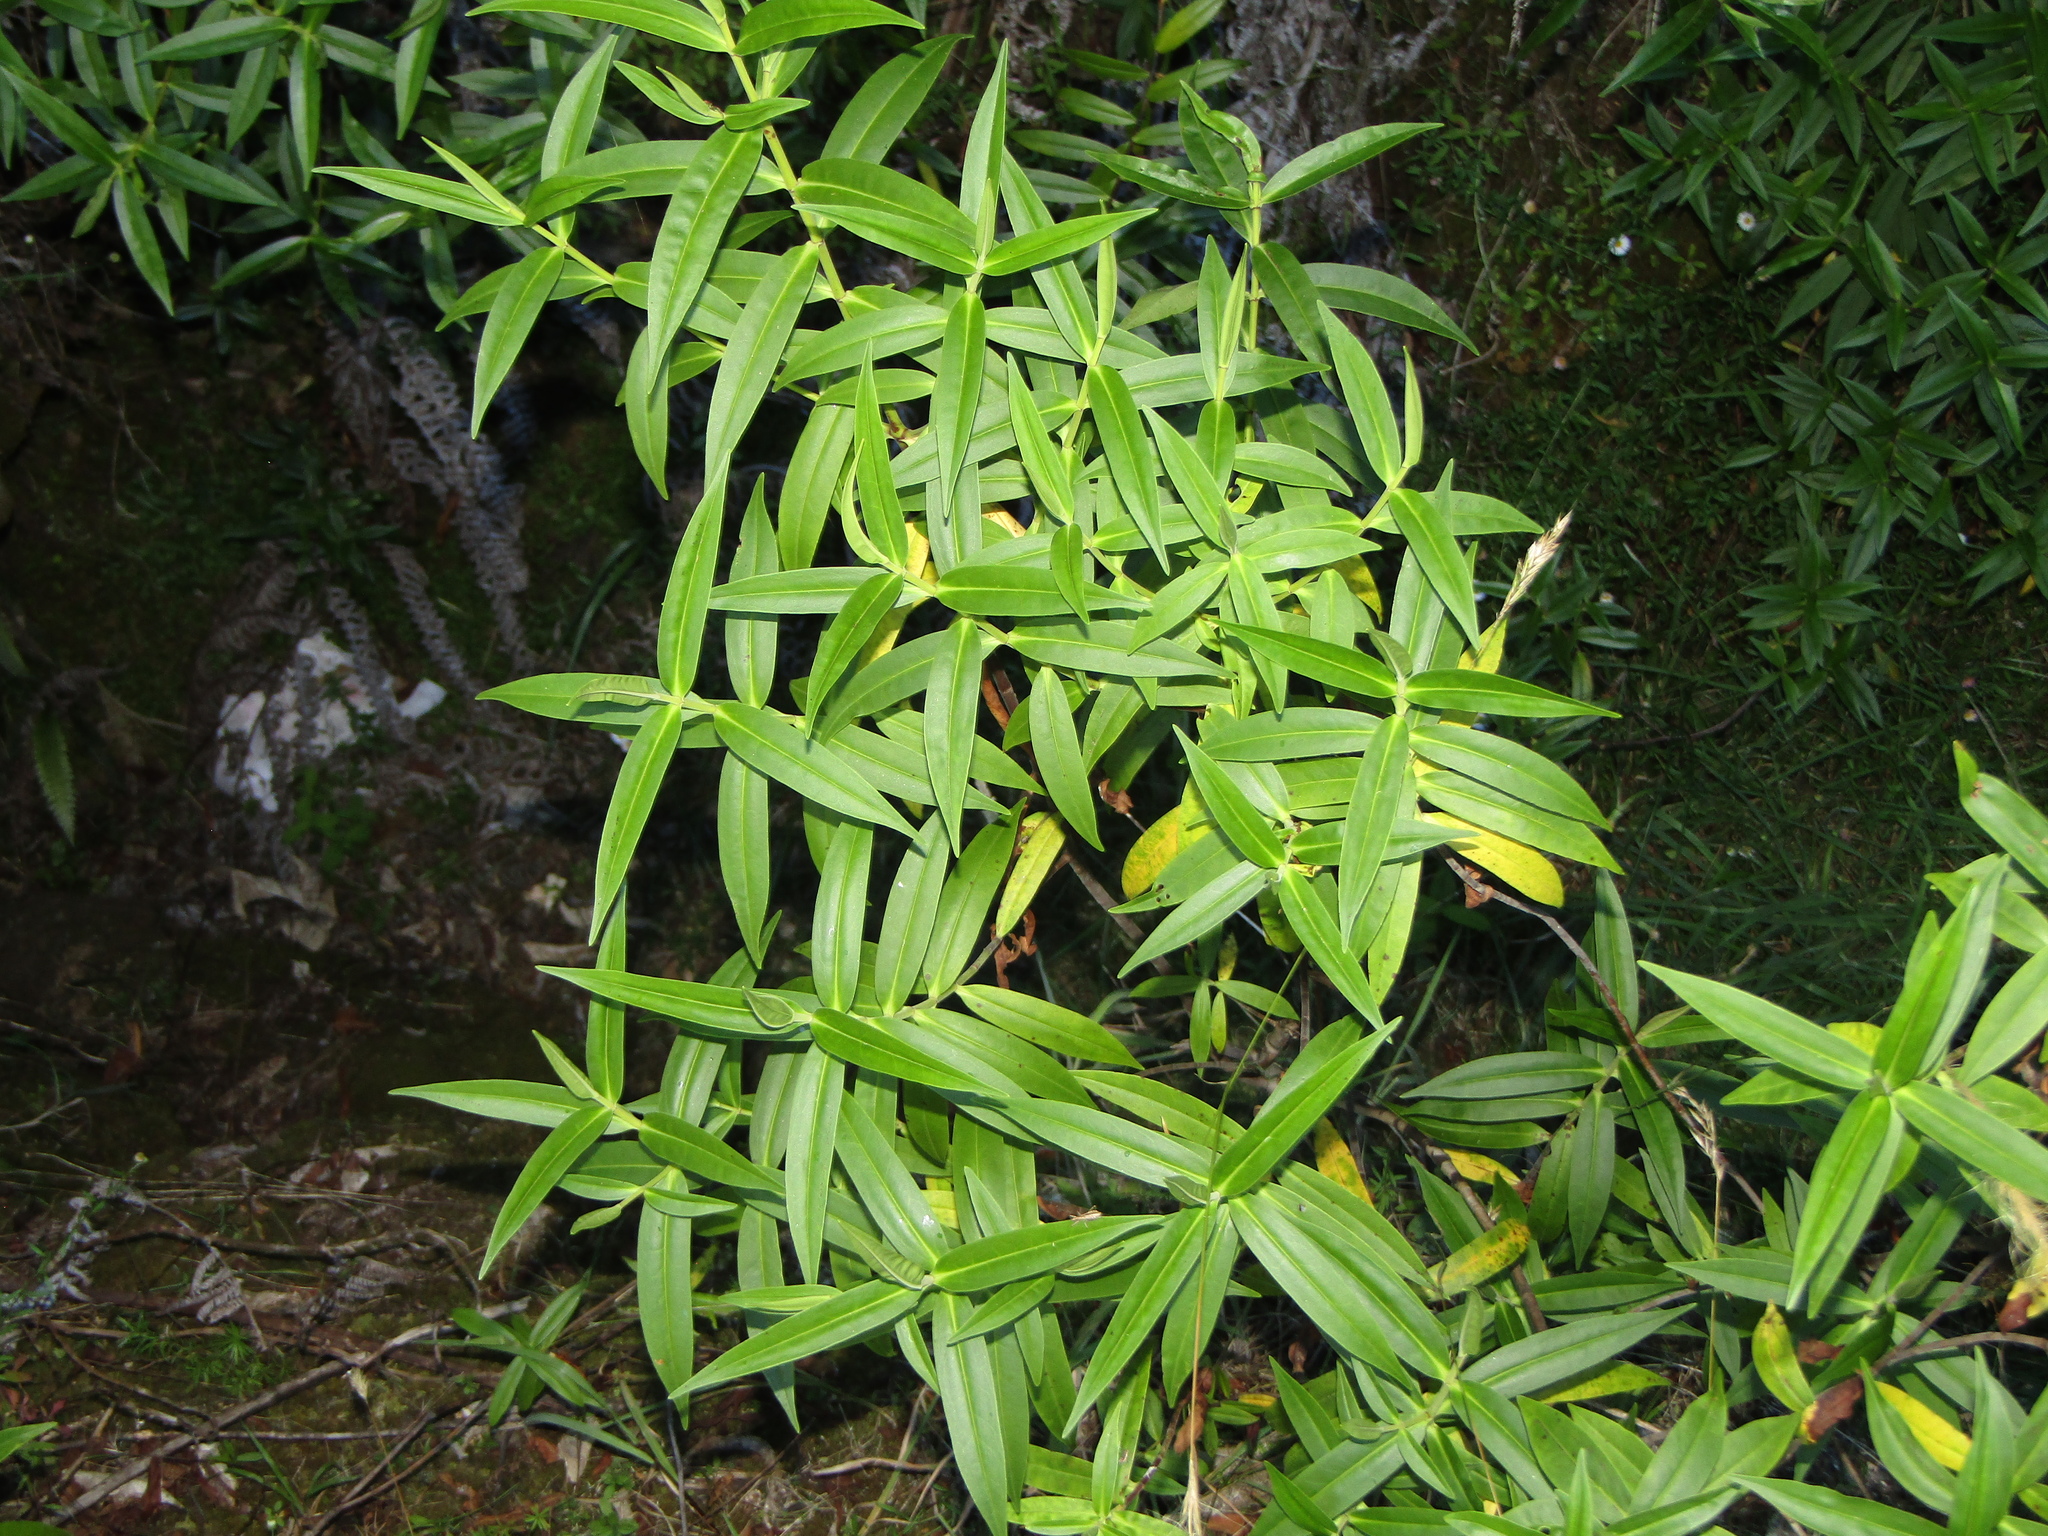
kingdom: Plantae
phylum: Tracheophyta
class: Magnoliopsida
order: Lamiales
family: Plantaginaceae
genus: Veronica
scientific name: Veronica stricta
